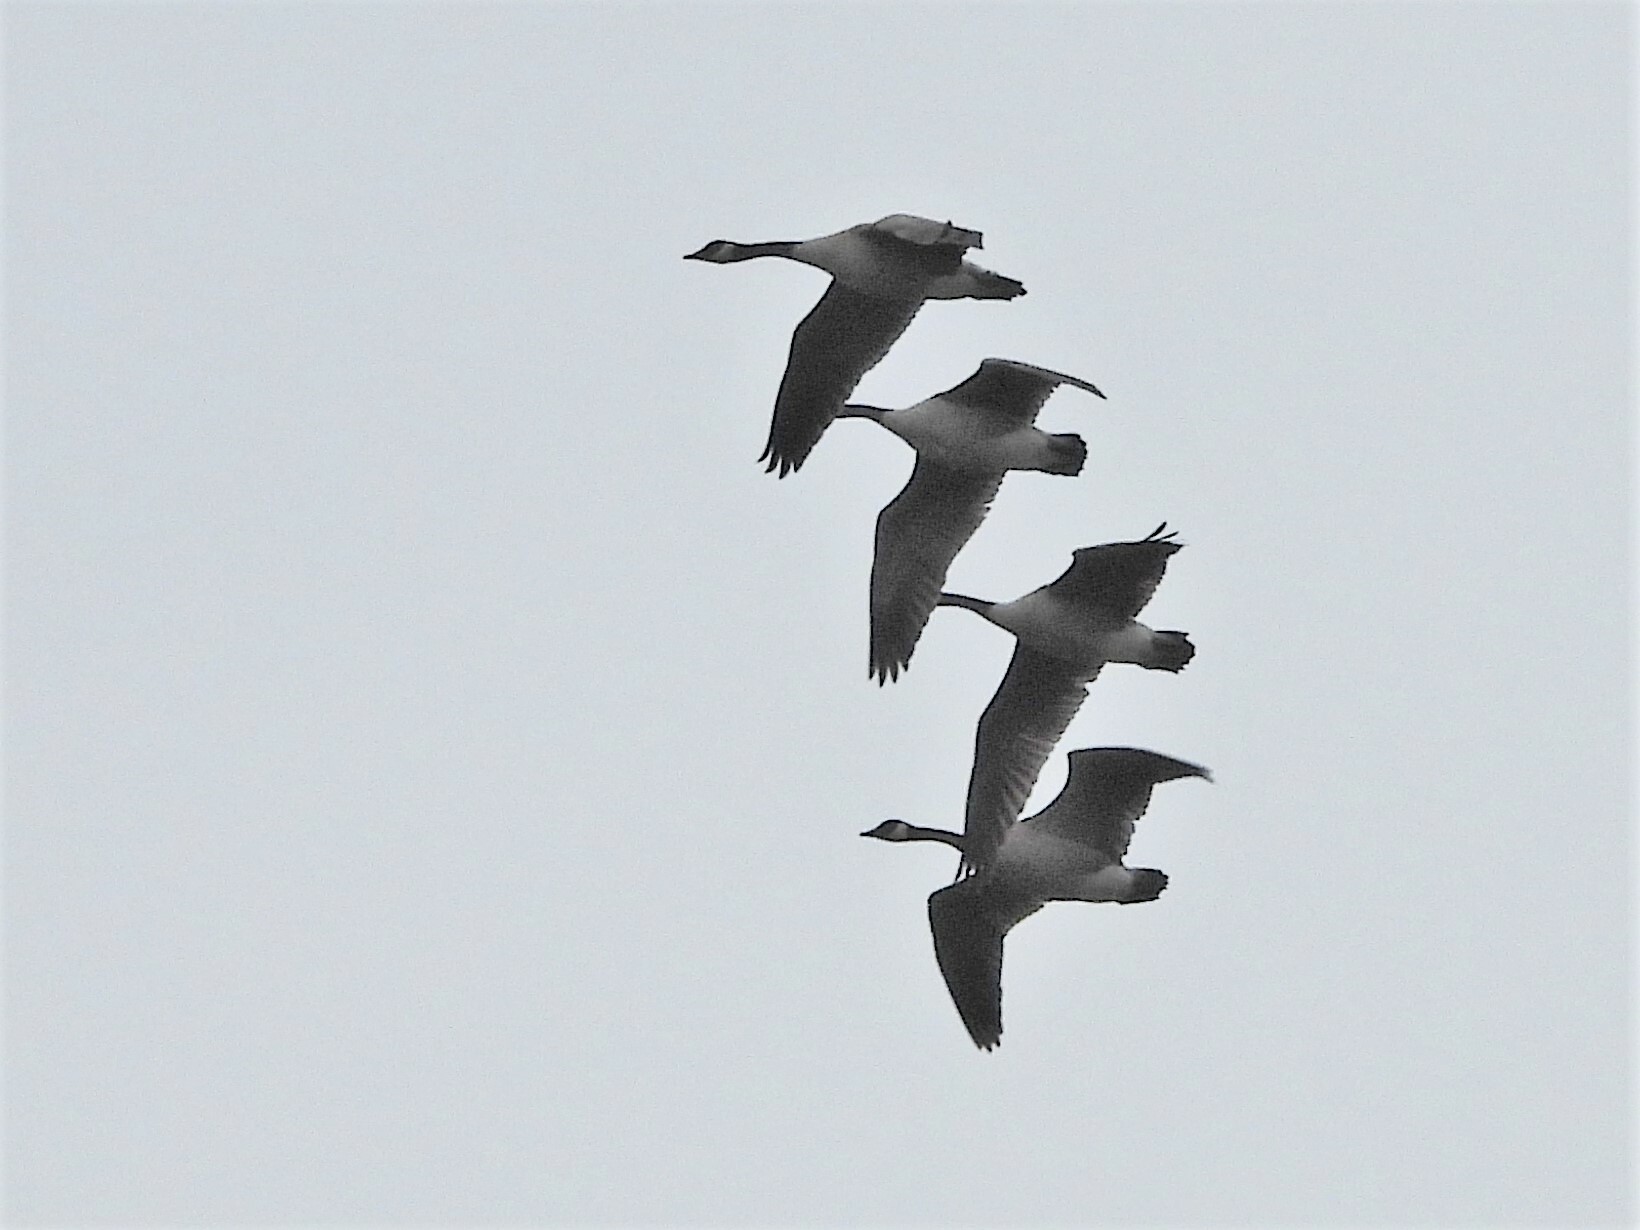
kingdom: Animalia
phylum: Chordata
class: Aves
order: Anseriformes
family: Anatidae
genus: Branta
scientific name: Branta canadensis
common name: Canada goose
